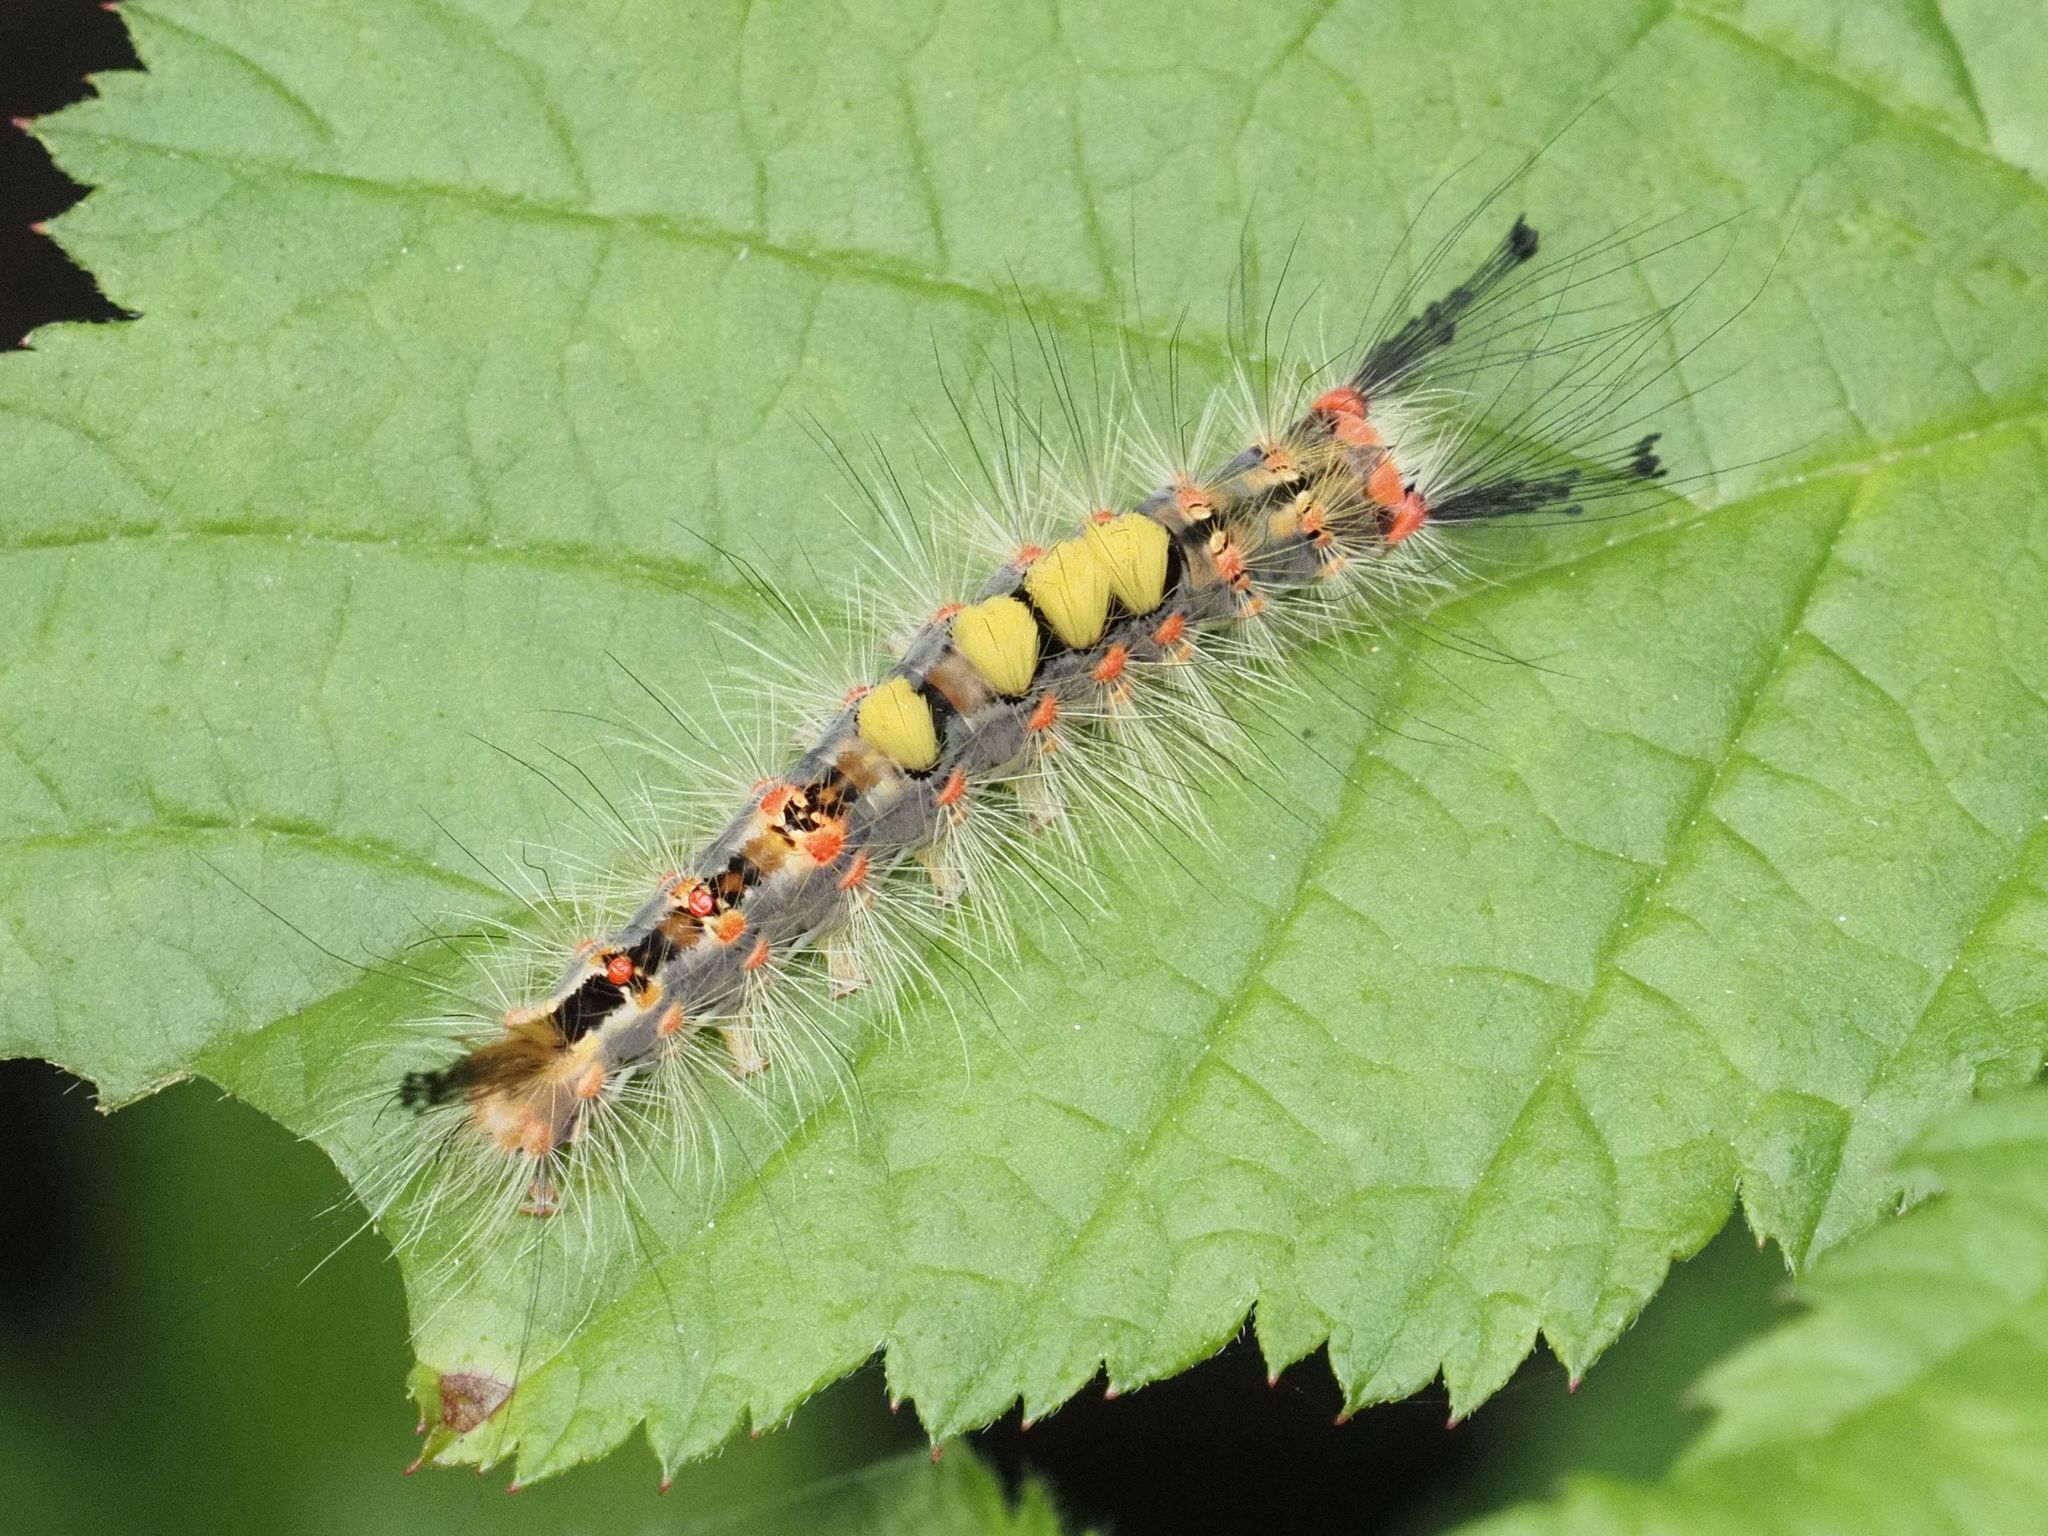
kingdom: Animalia
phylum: Arthropoda
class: Insecta
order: Lepidoptera
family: Erebidae
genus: Orgyia
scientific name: Orgyia antiqua
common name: Vapourer
